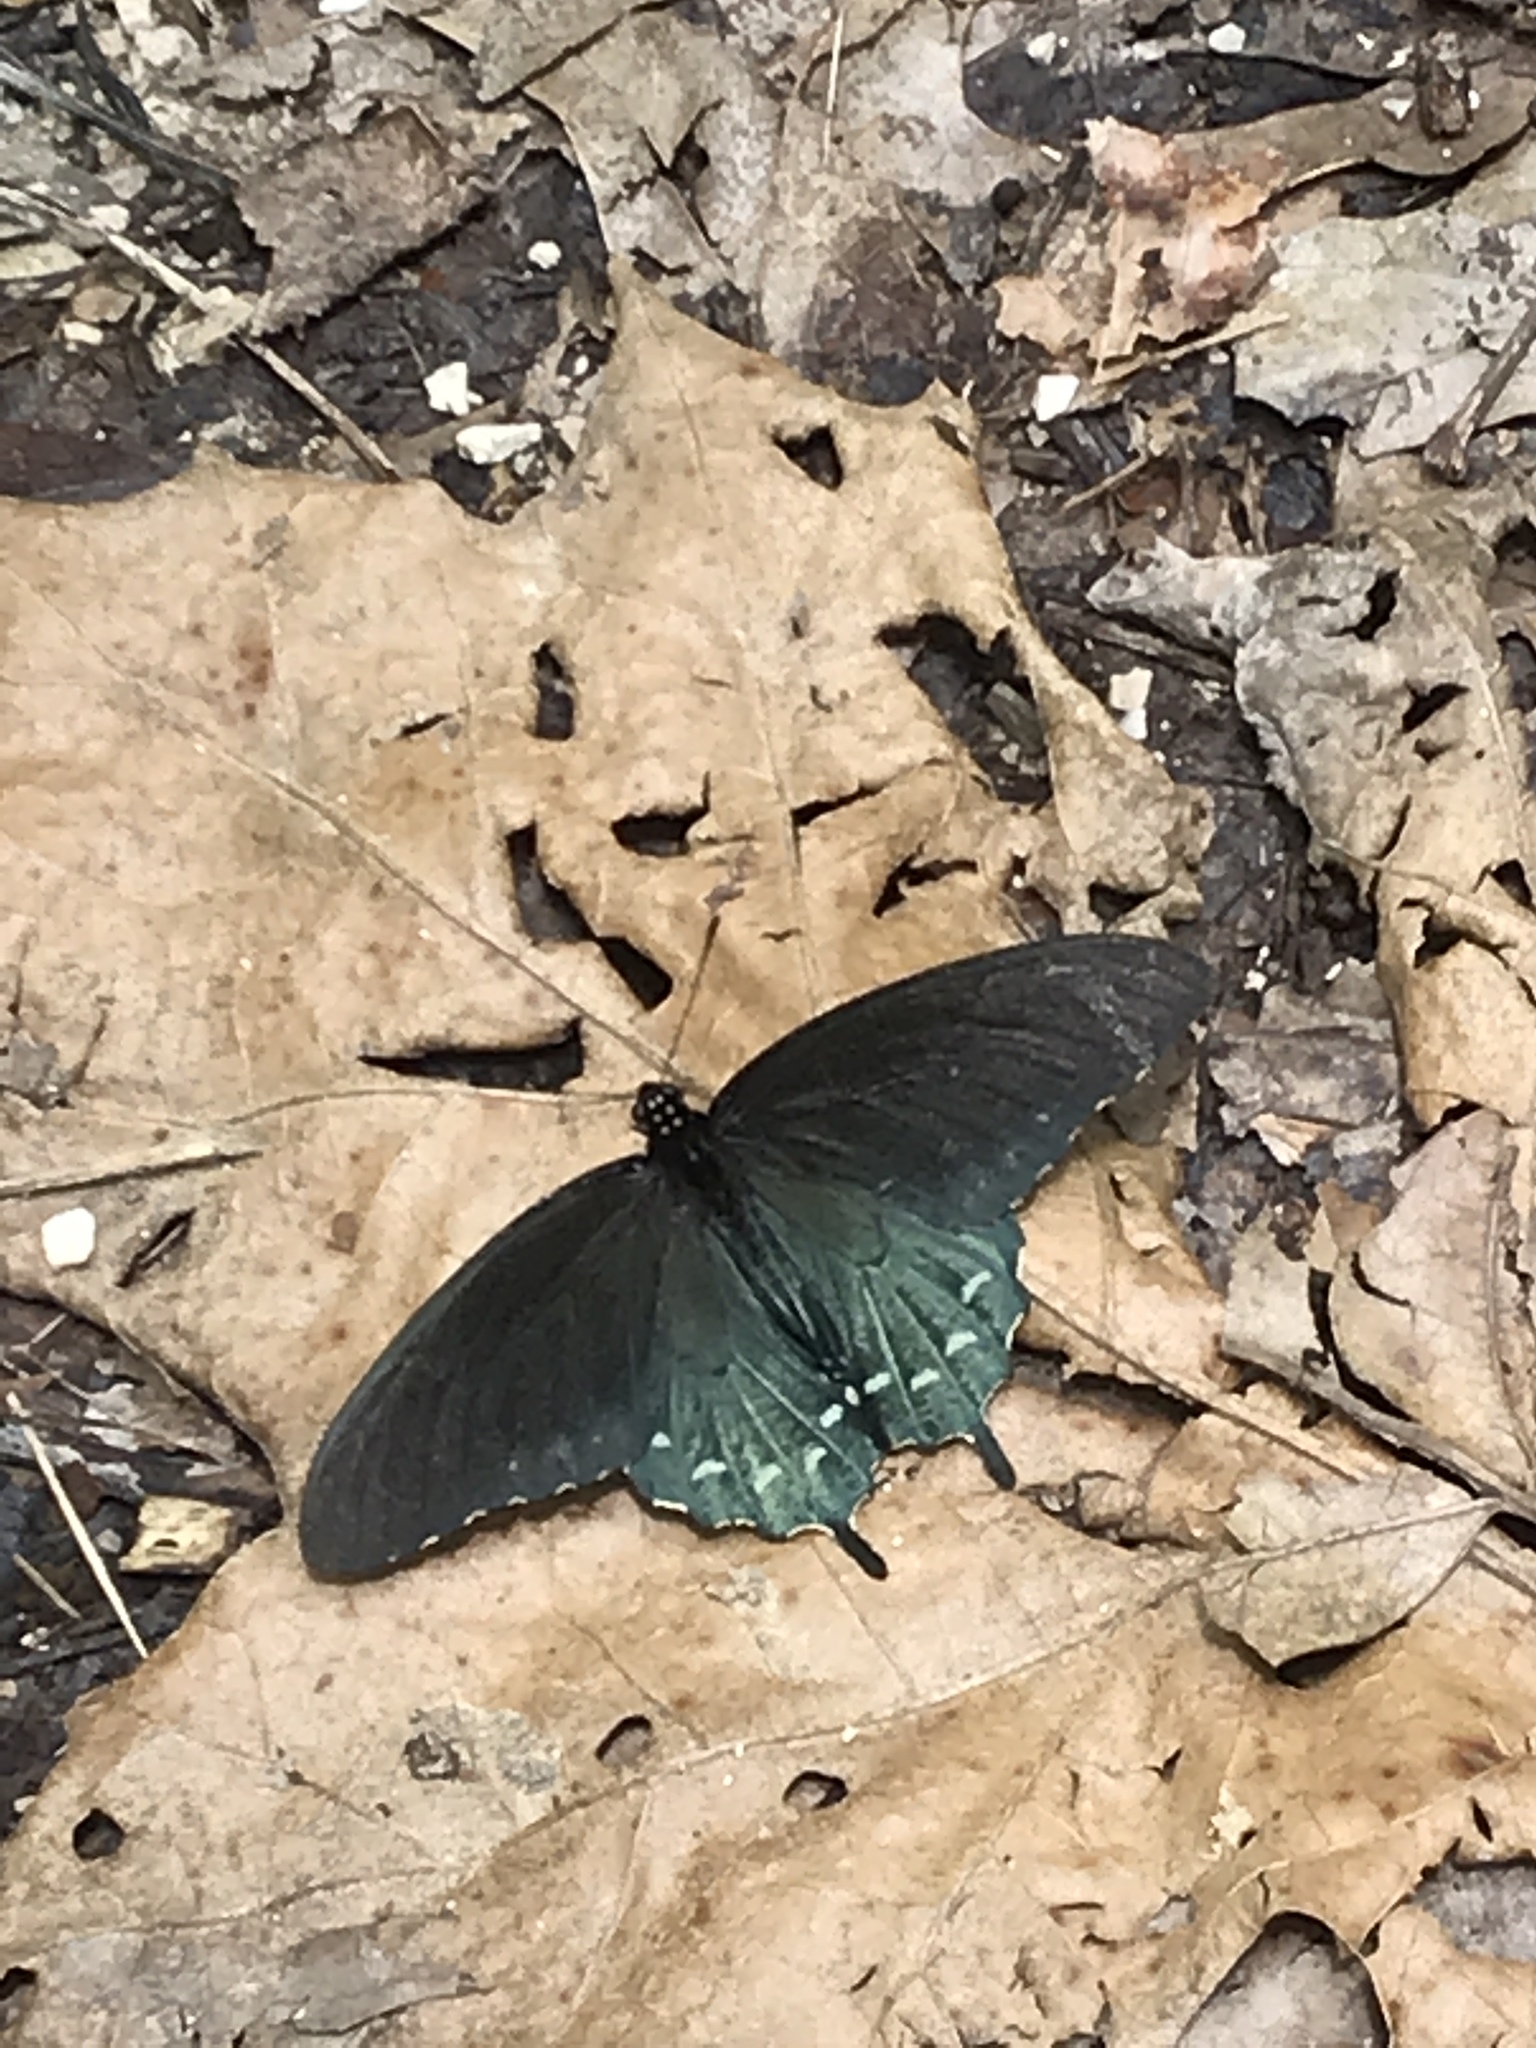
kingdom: Animalia
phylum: Arthropoda
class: Insecta
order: Lepidoptera
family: Papilionidae
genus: Battus
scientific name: Battus philenor
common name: Pipevine swallowtail
